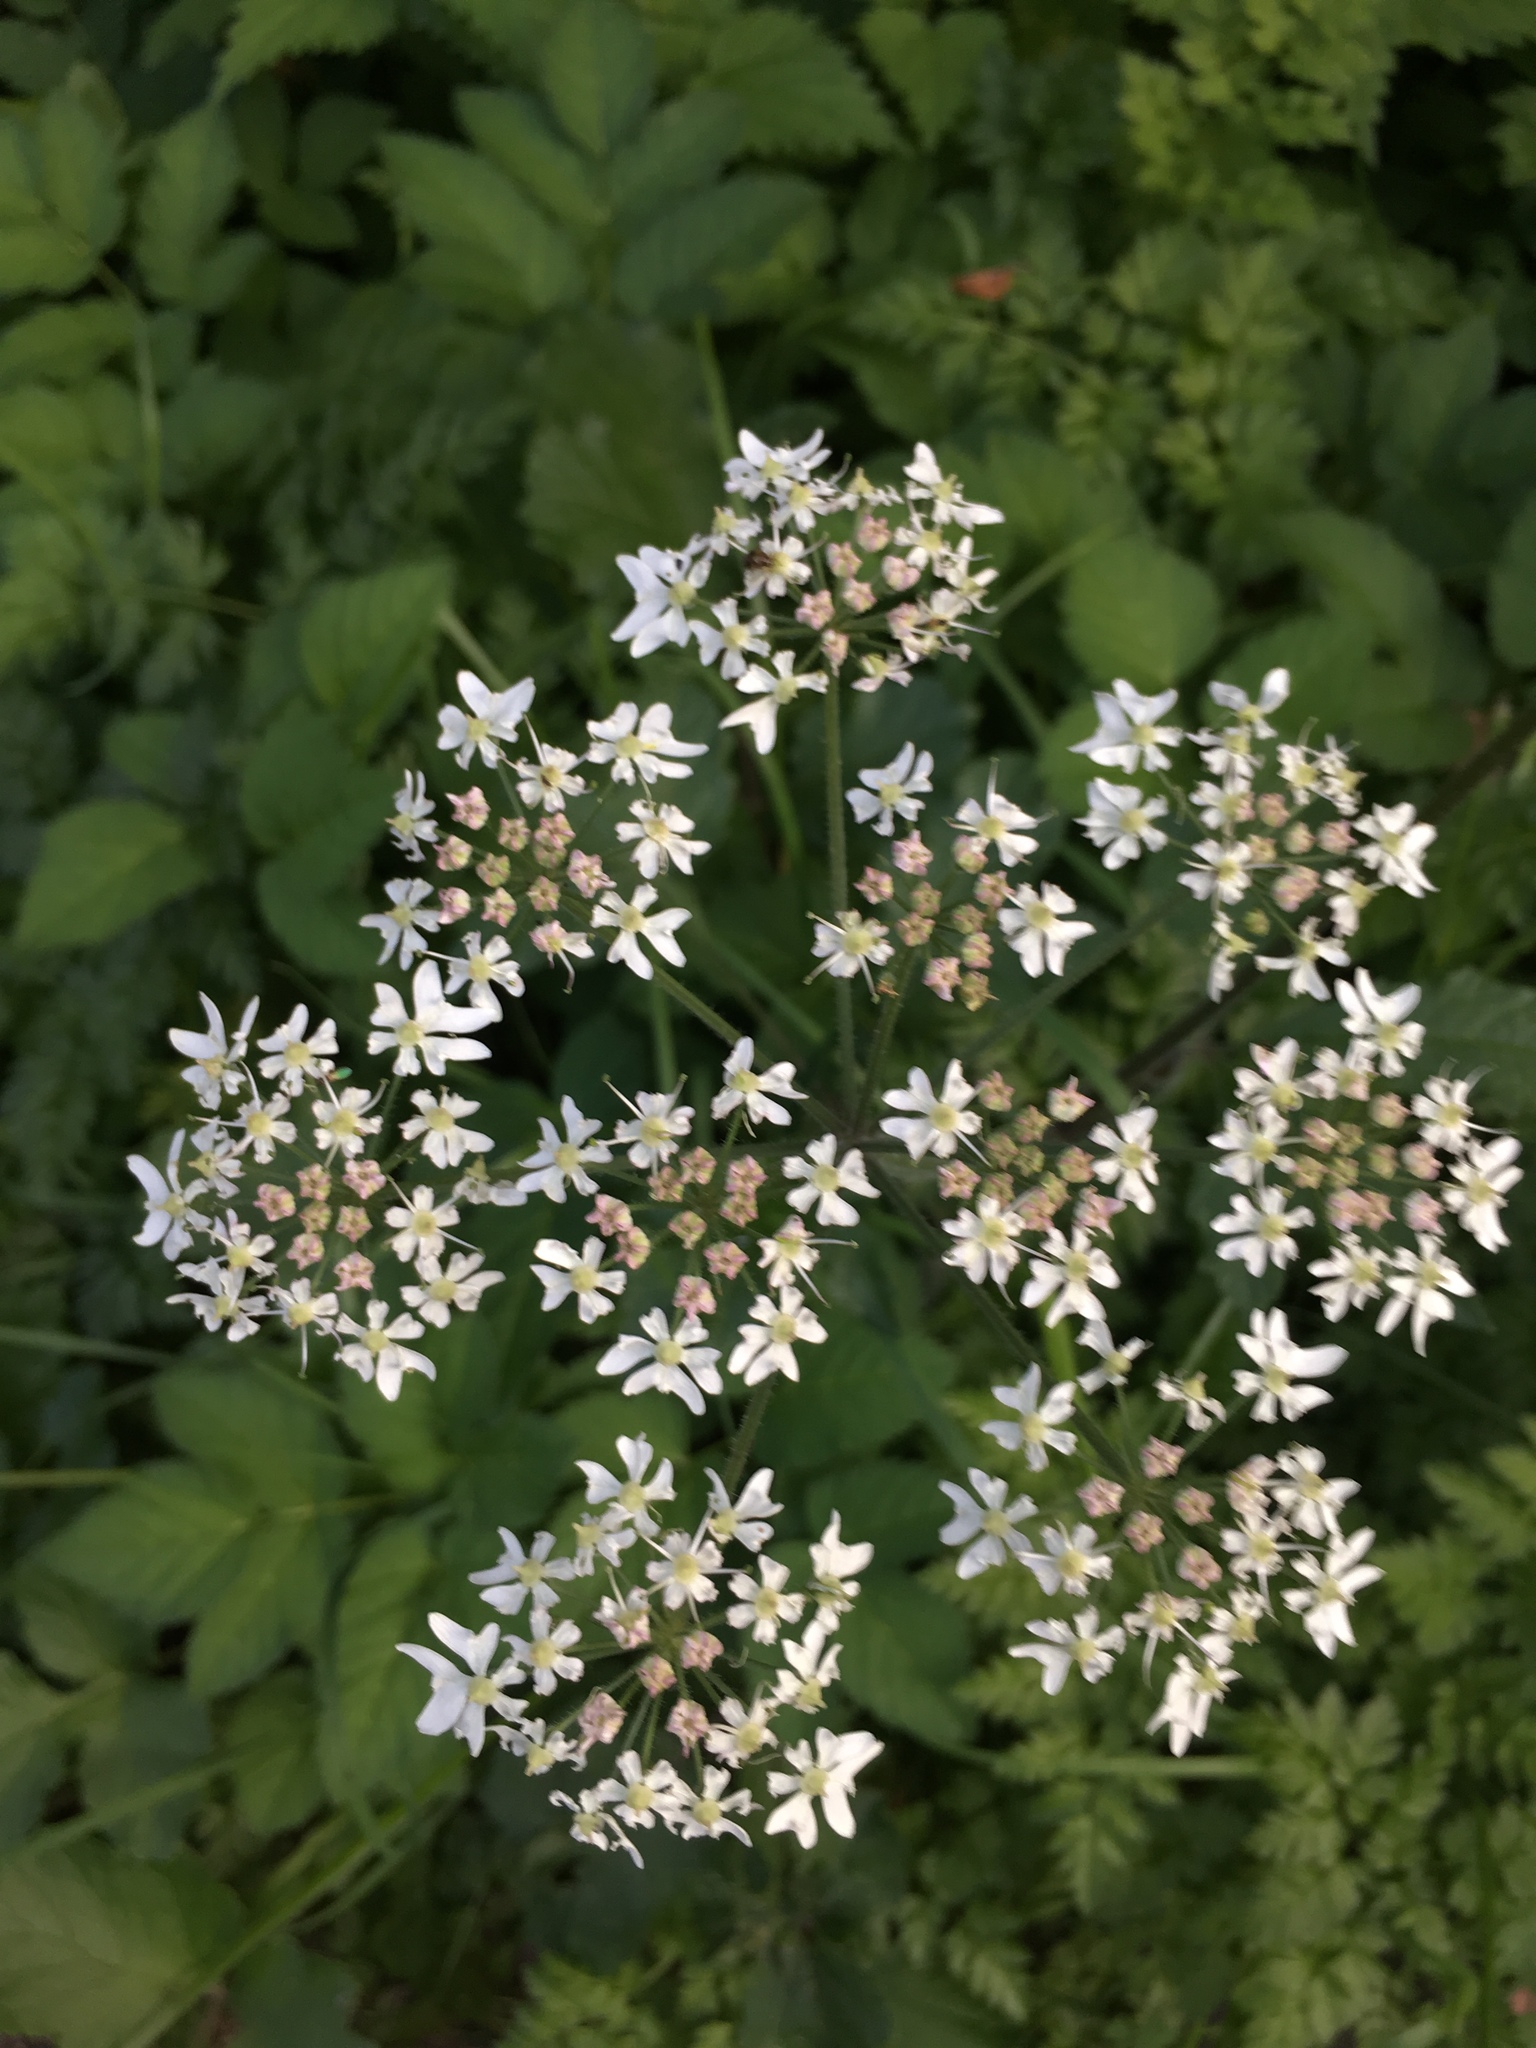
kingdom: Plantae
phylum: Tracheophyta
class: Magnoliopsida
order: Apiales
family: Apiaceae
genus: Heracleum
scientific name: Heracleum sphondylium
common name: Hogweed
